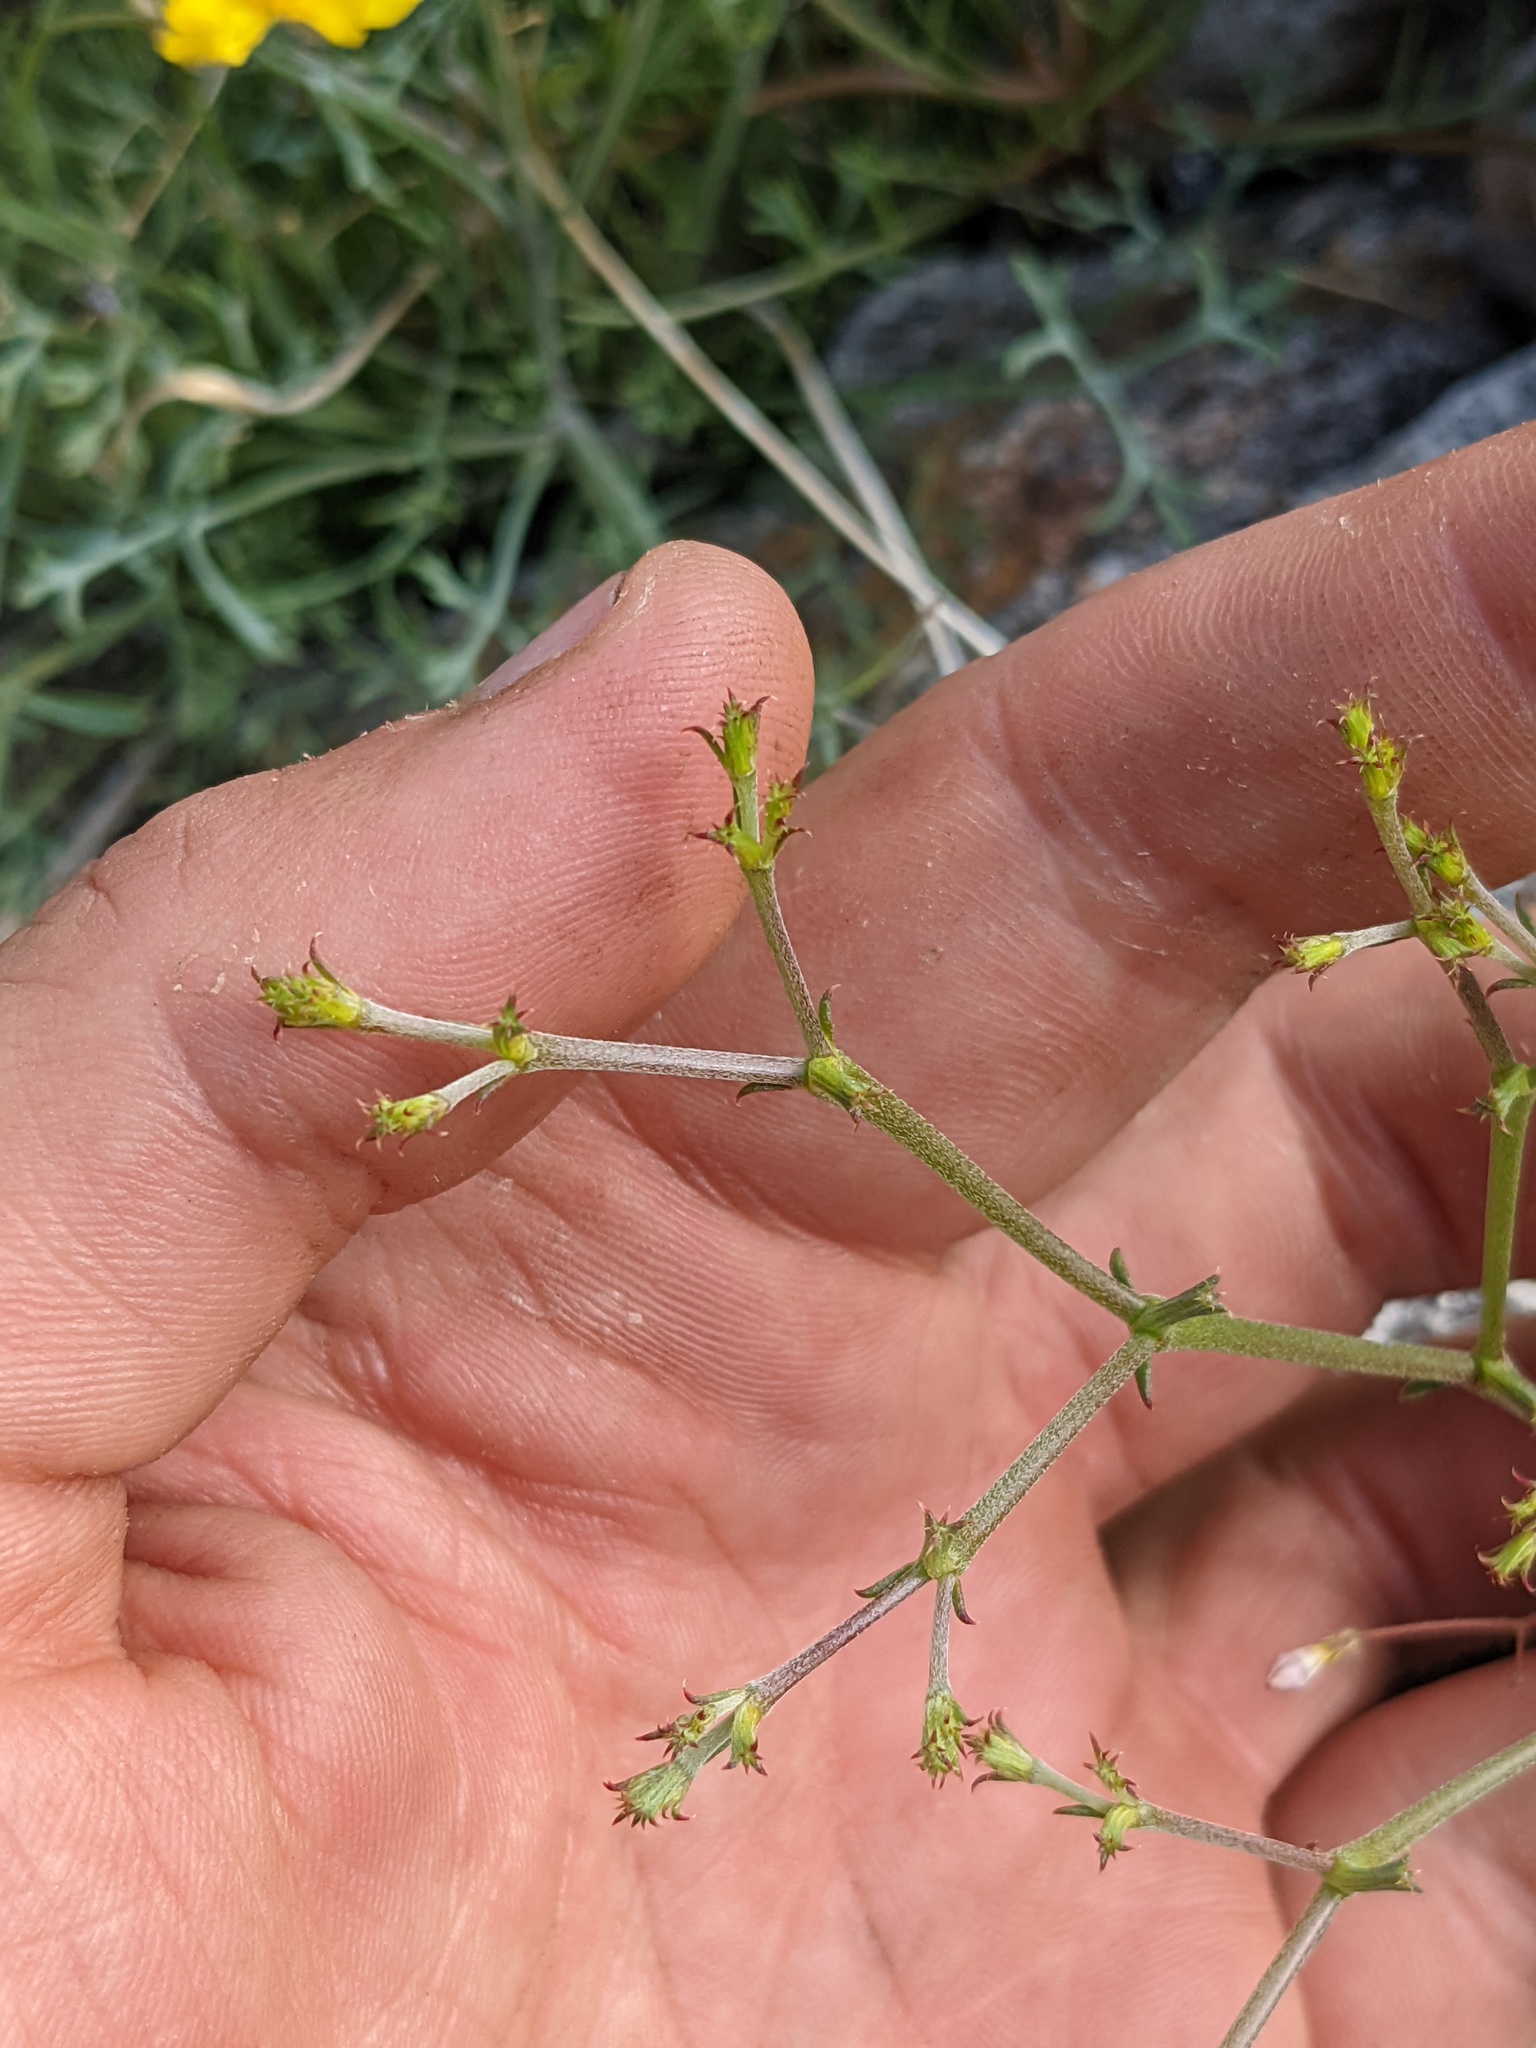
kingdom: Plantae
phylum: Tracheophyta
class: Magnoliopsida
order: Caryophyllales
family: Polygonaceae
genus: Chorizanthe
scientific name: Chorizanthe brevicornu
